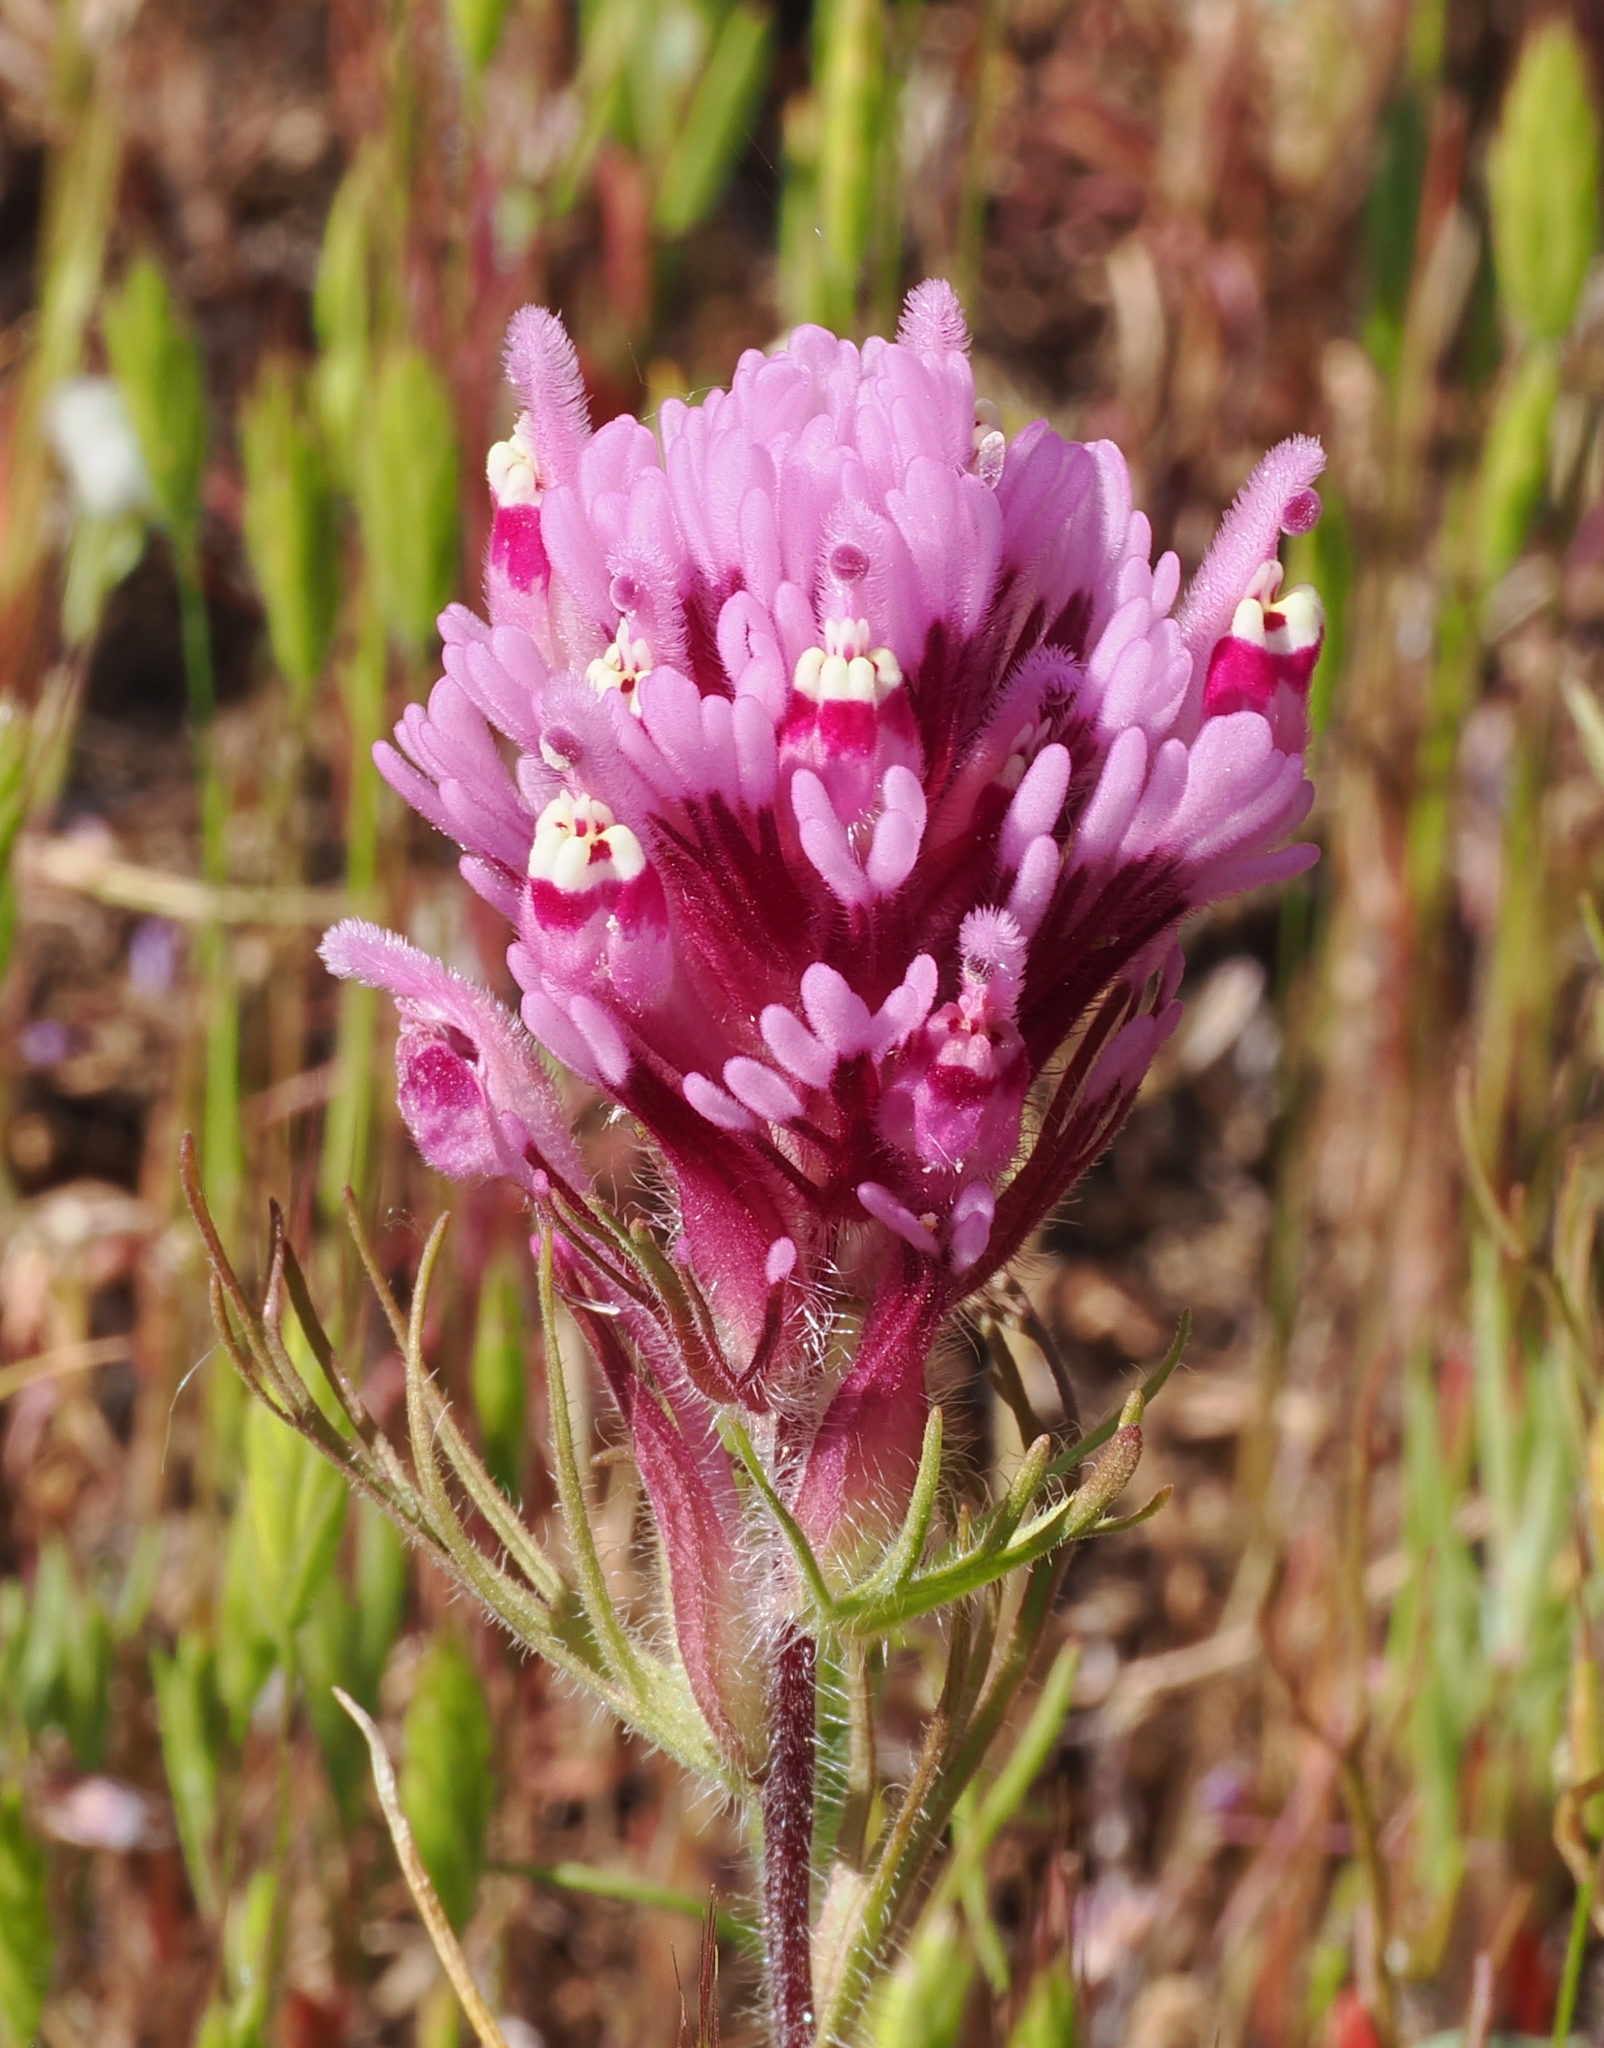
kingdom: Plantae
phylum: Tracheophyta
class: Magnoliopsida
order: Lamiales
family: Orobanchaceae
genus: Castilleja
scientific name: Castilleja exserta
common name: Purple owl-clover
